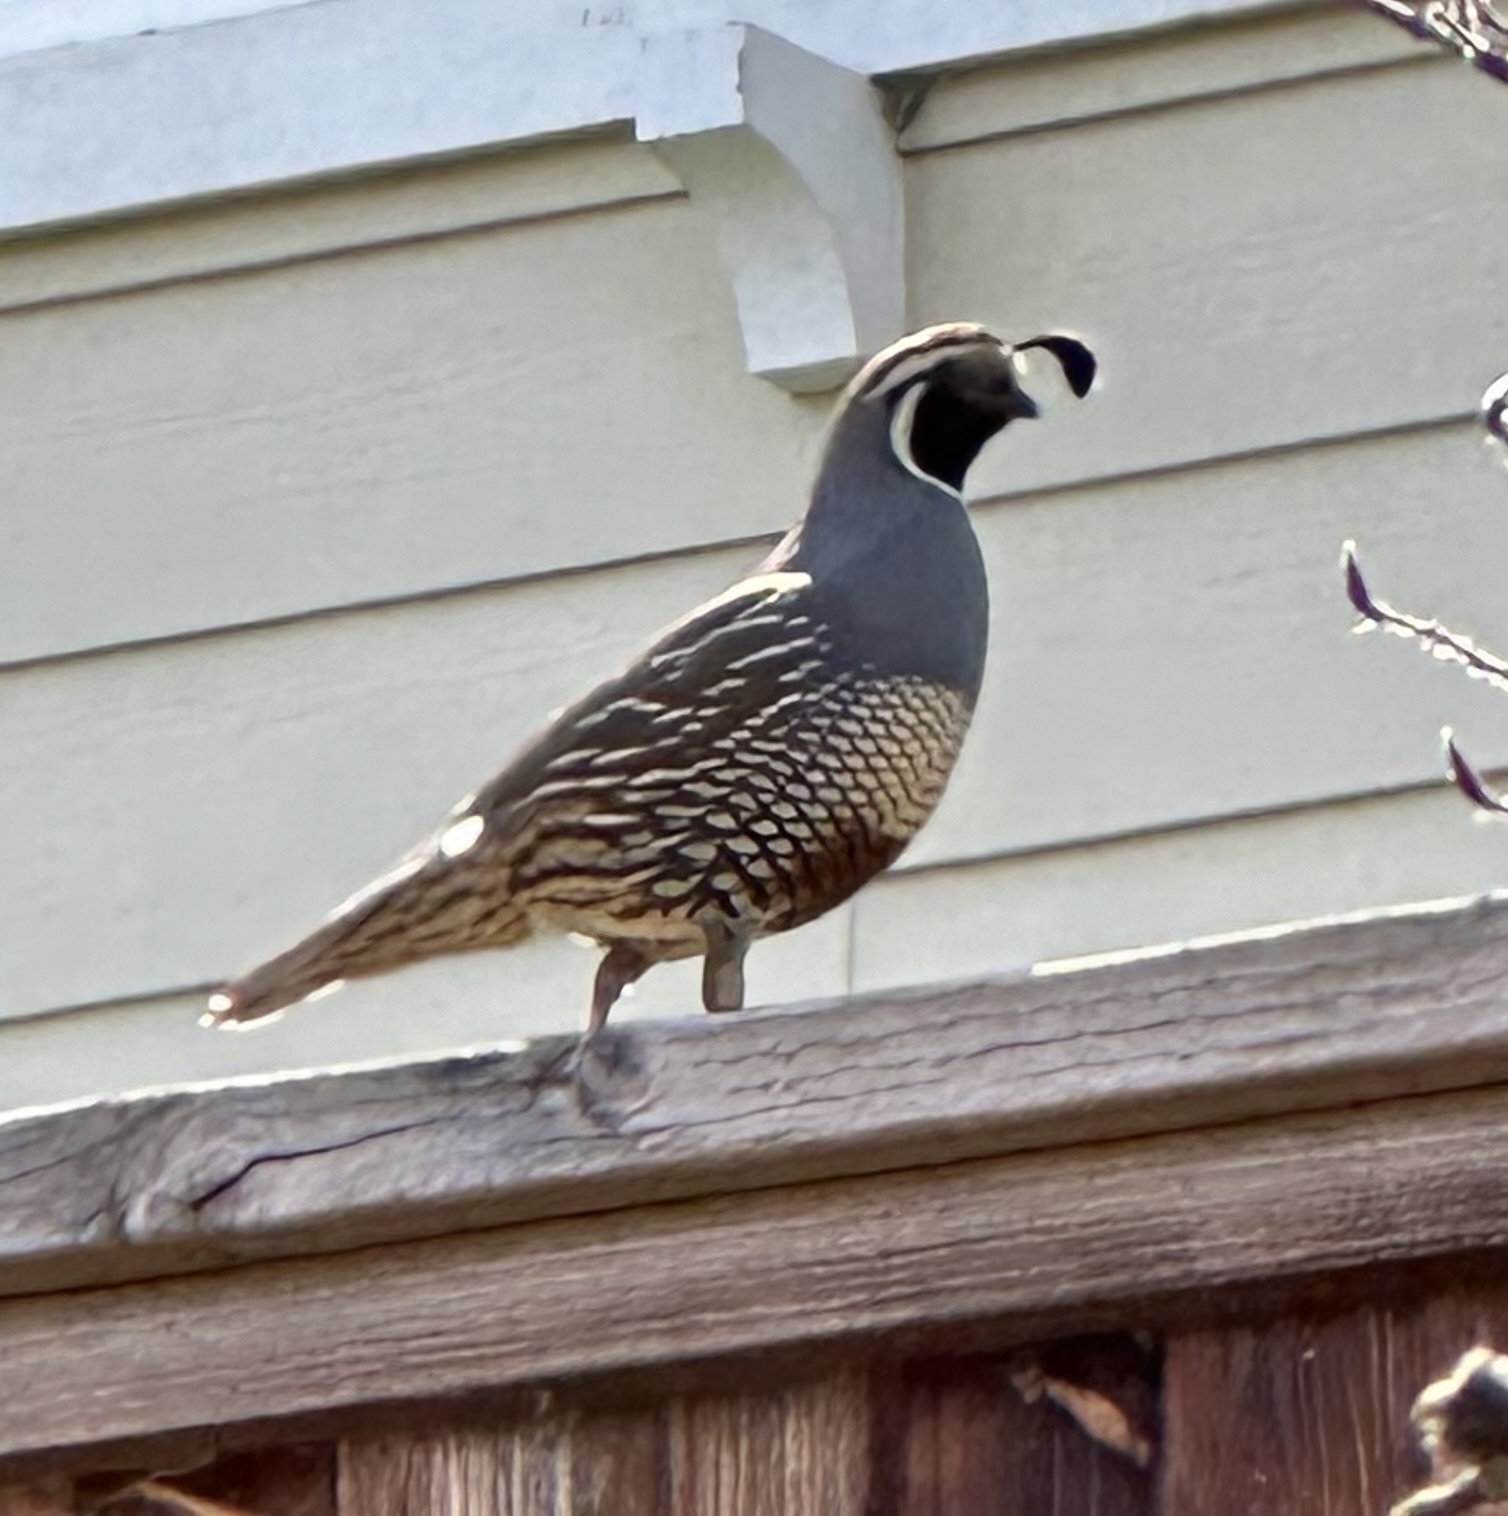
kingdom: Animalia
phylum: Chordata
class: Aves
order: Galliformes
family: Odontophoridae
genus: Callipepla
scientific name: Callipepla californica
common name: California quail
